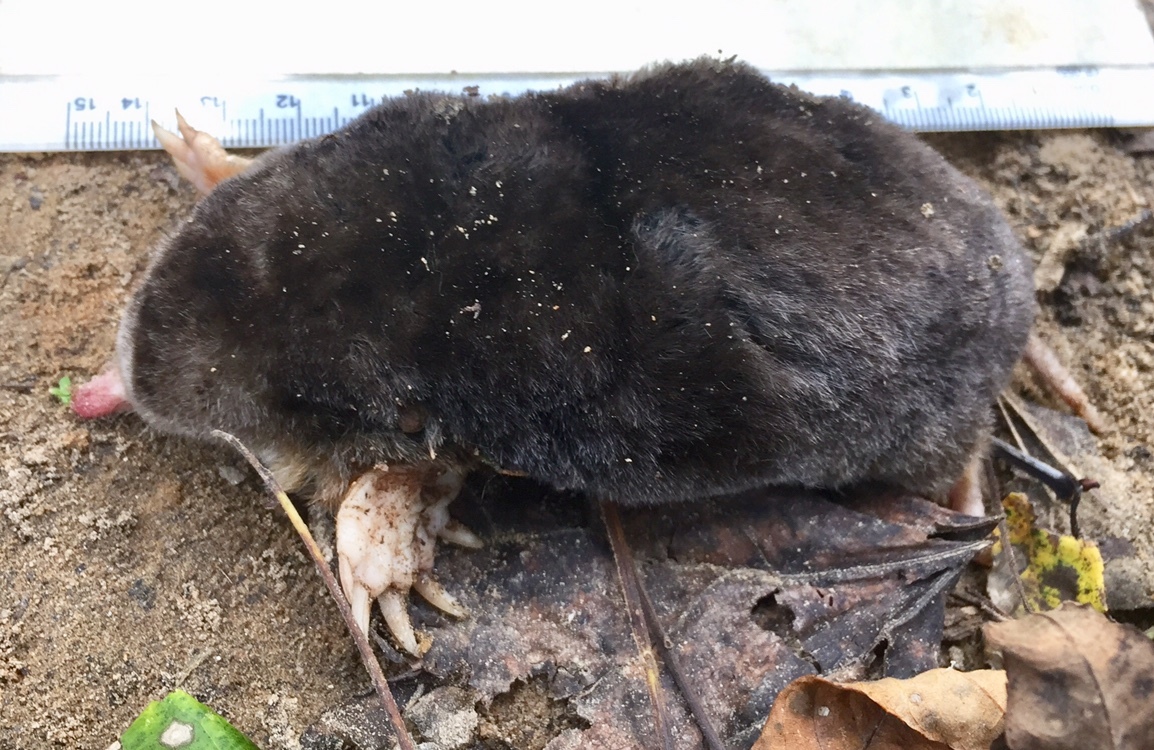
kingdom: Animalia
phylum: Chordata
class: Mammalia
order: Soricomorpha
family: Talpidae
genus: Scalopus
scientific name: Scalopus aquaticus
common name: Eastern mole
